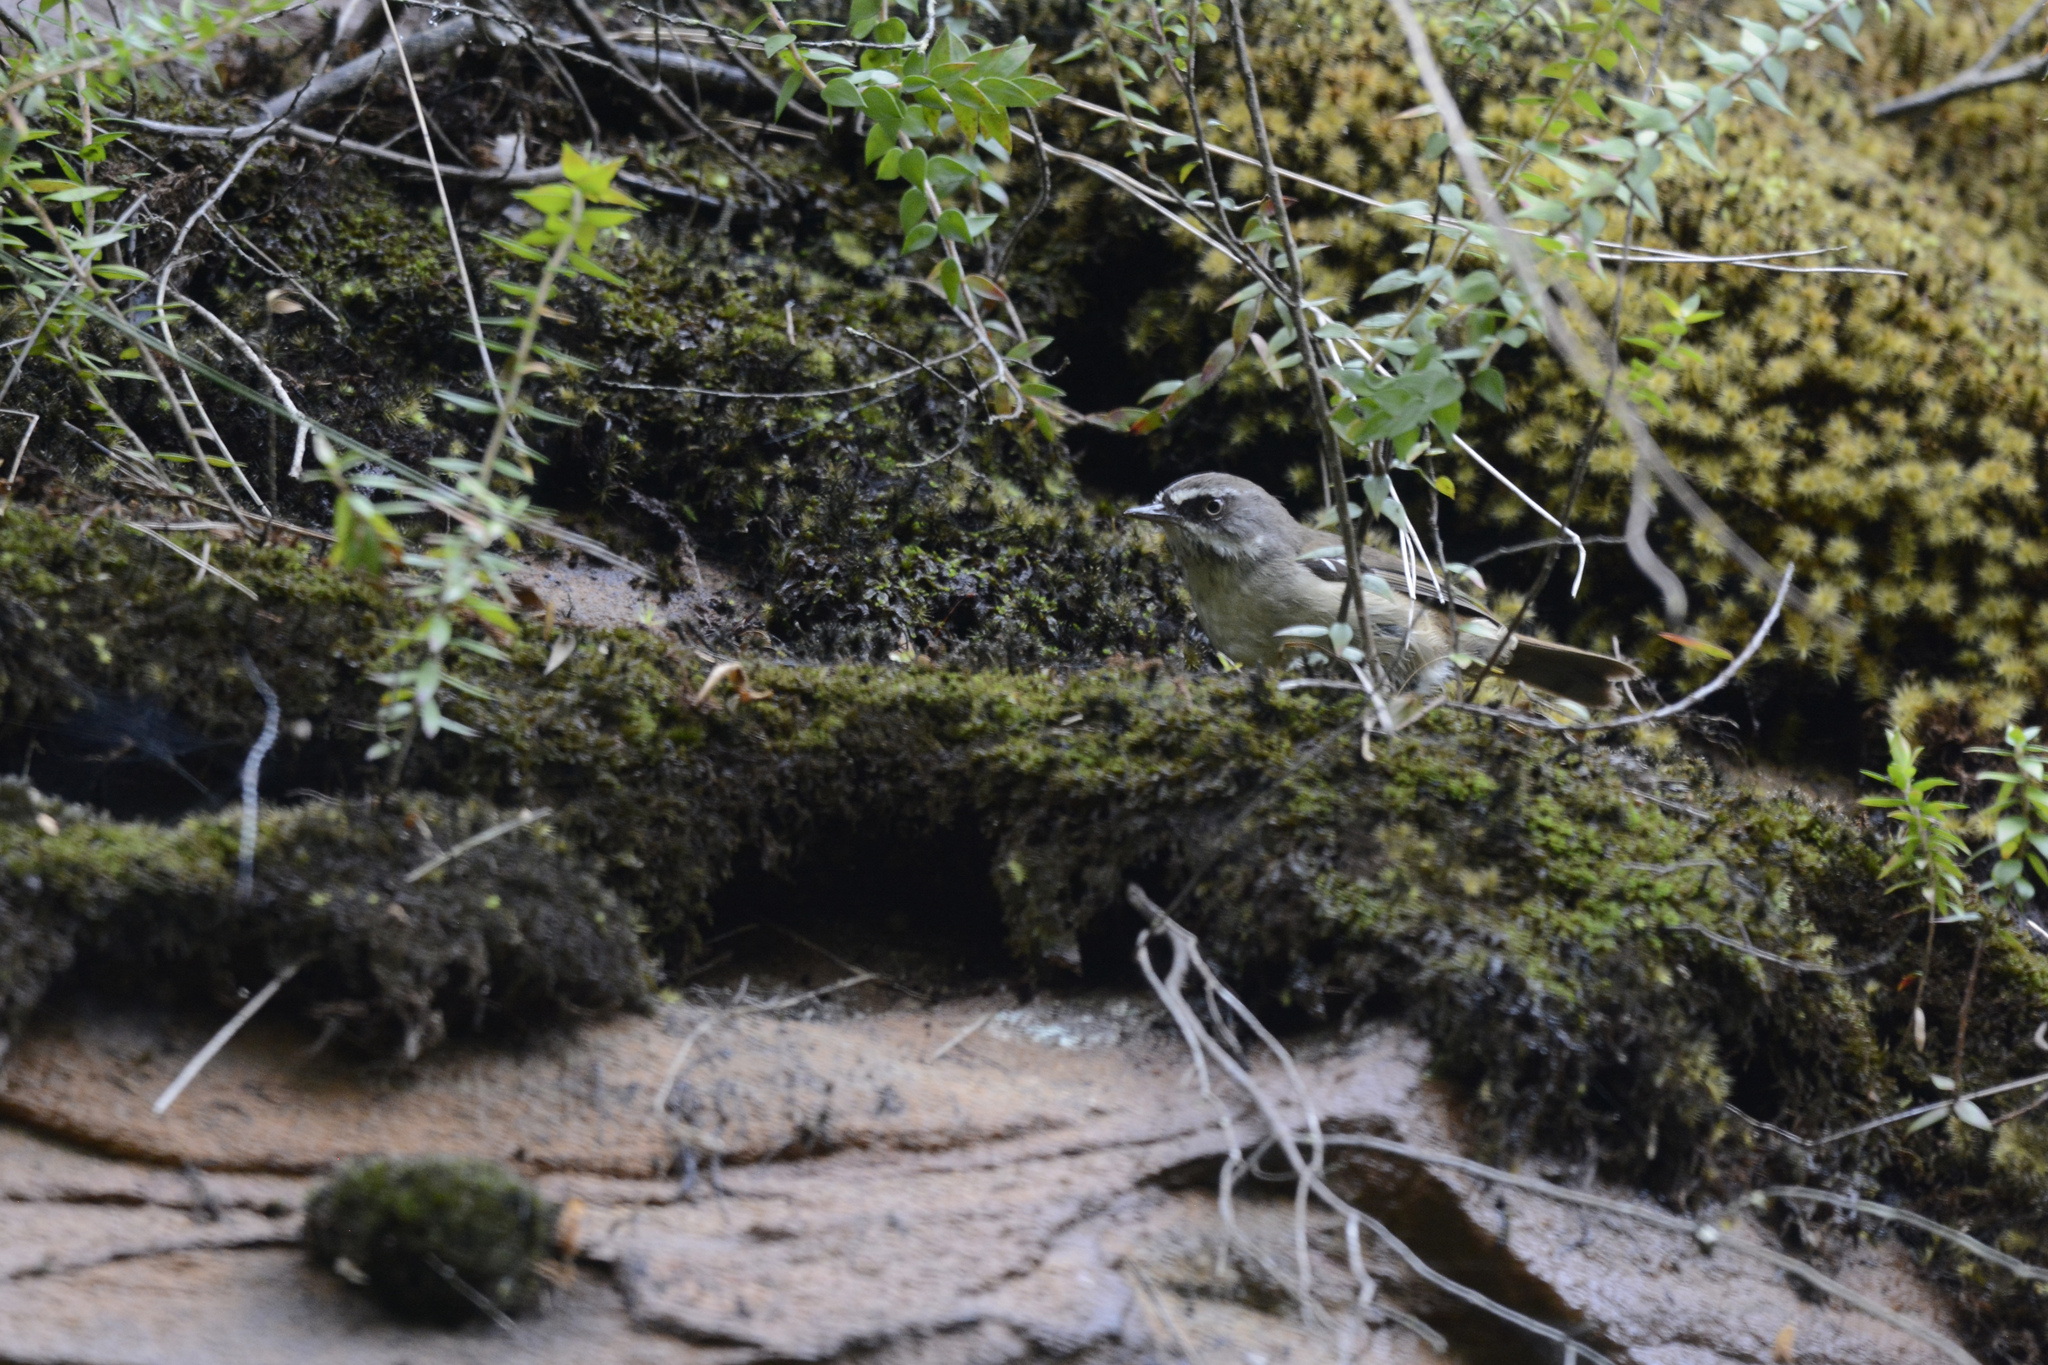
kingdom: Animalia
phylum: Chordata
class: Aves
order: Passeriformes
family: Acanthizidae
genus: Sericornis
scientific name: Sericornis frontalis
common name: White-browed scrubwren
